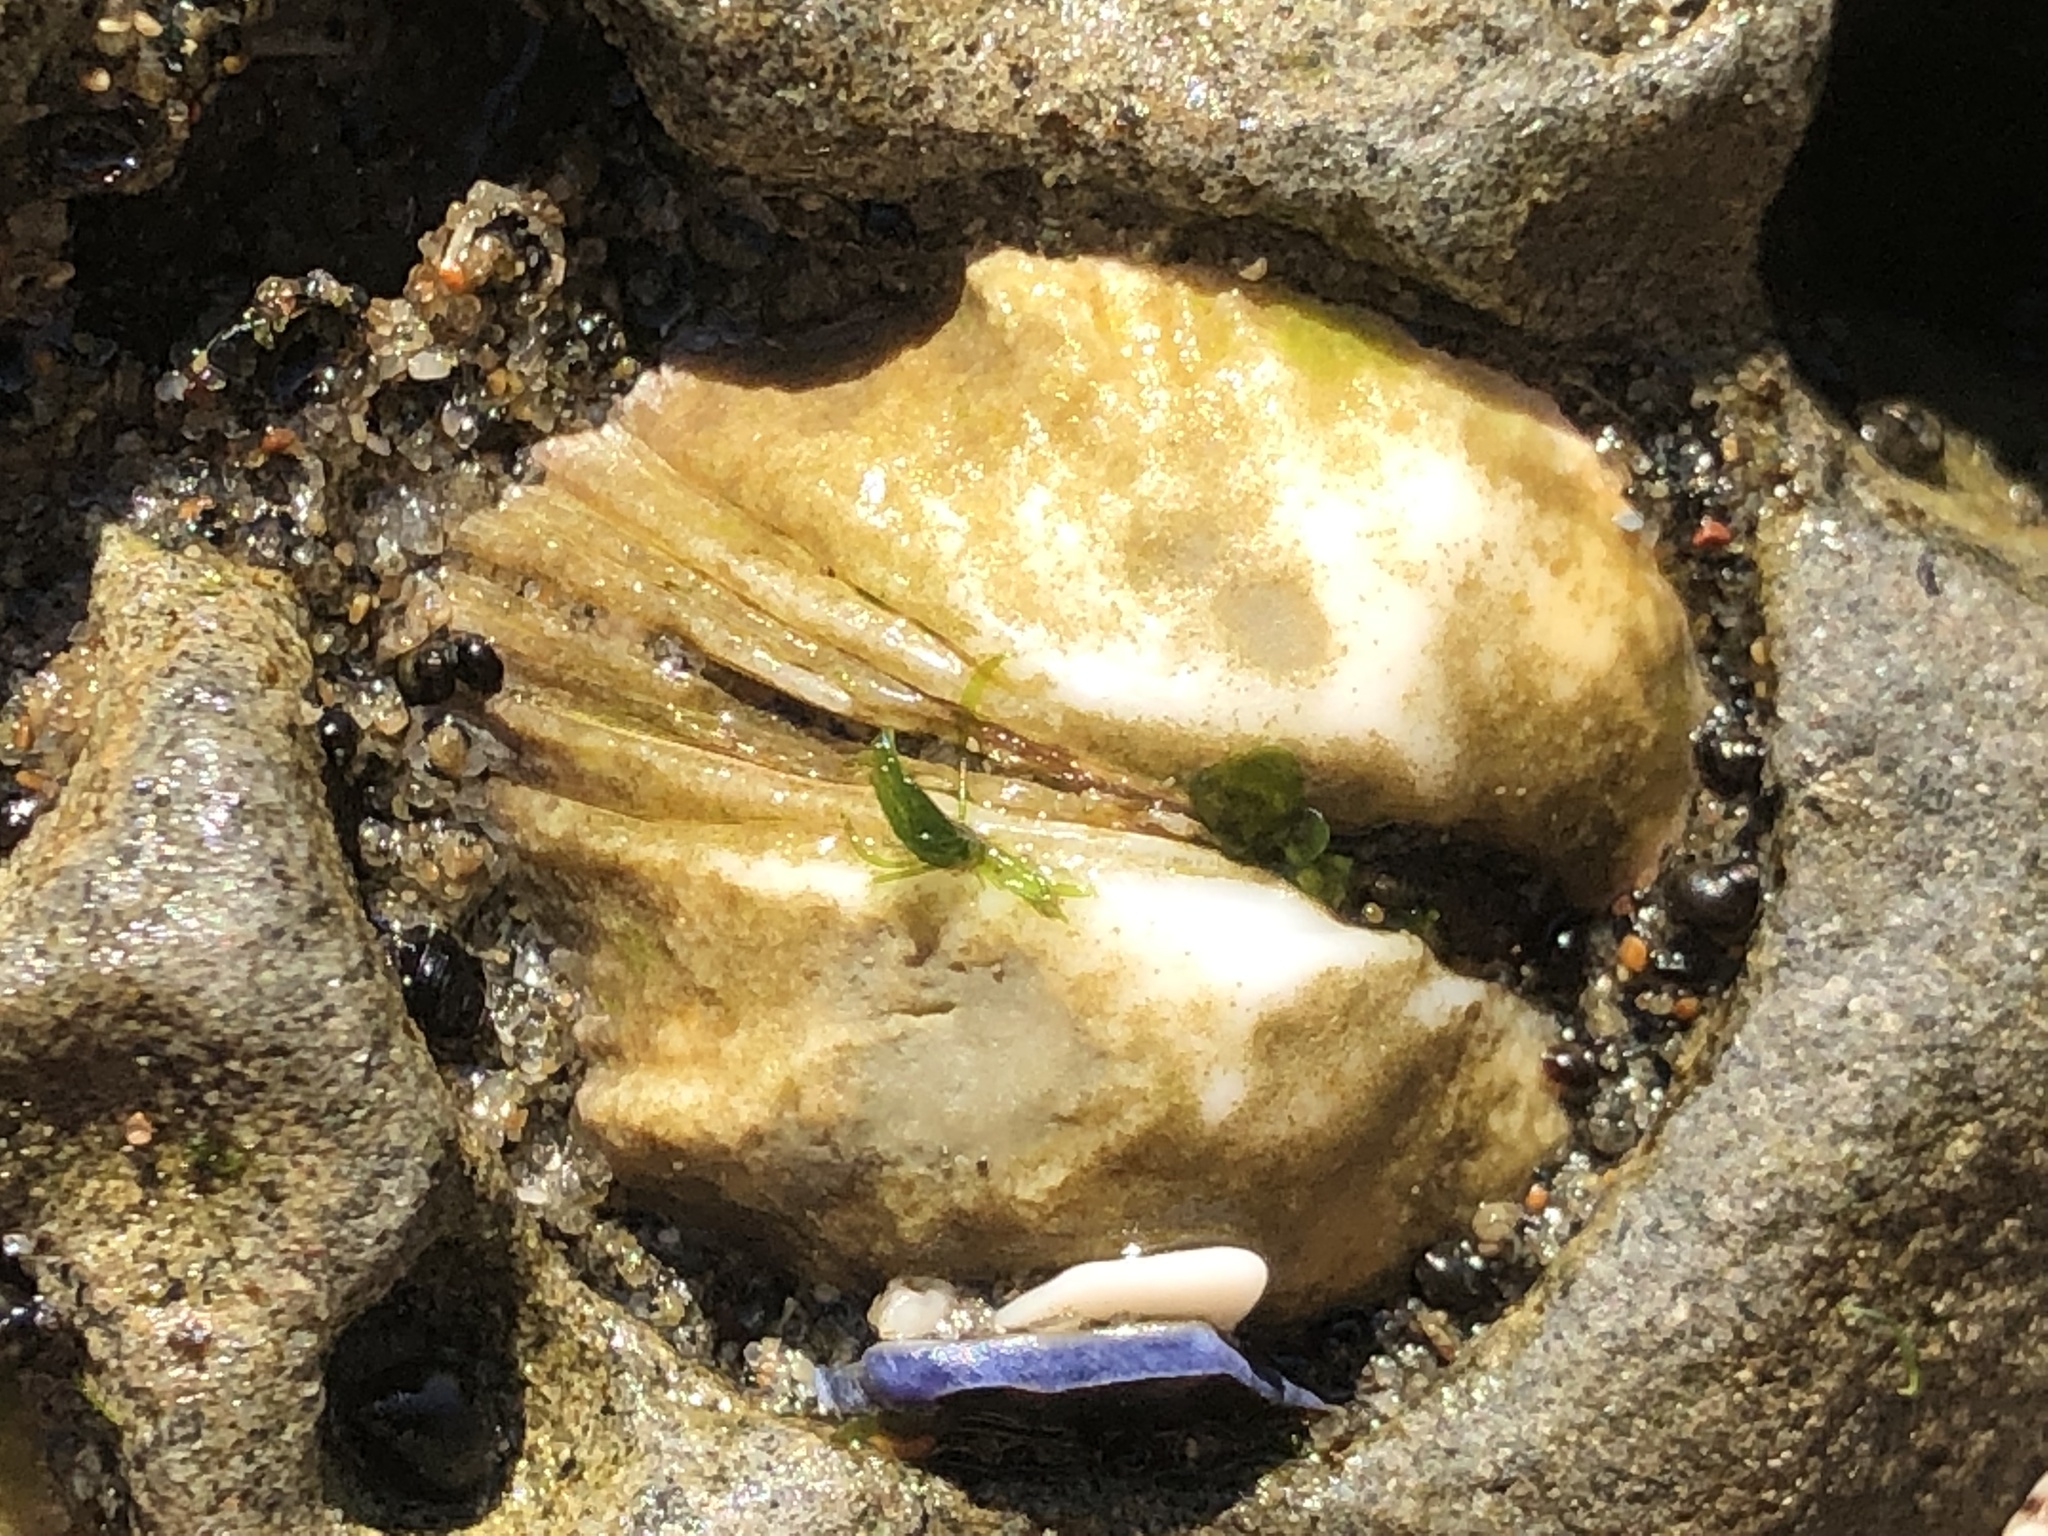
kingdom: Animalia
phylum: Mollusca
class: Bivalvia
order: Venerida
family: Veneridae
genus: Petricola
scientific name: Petricola carditoides
